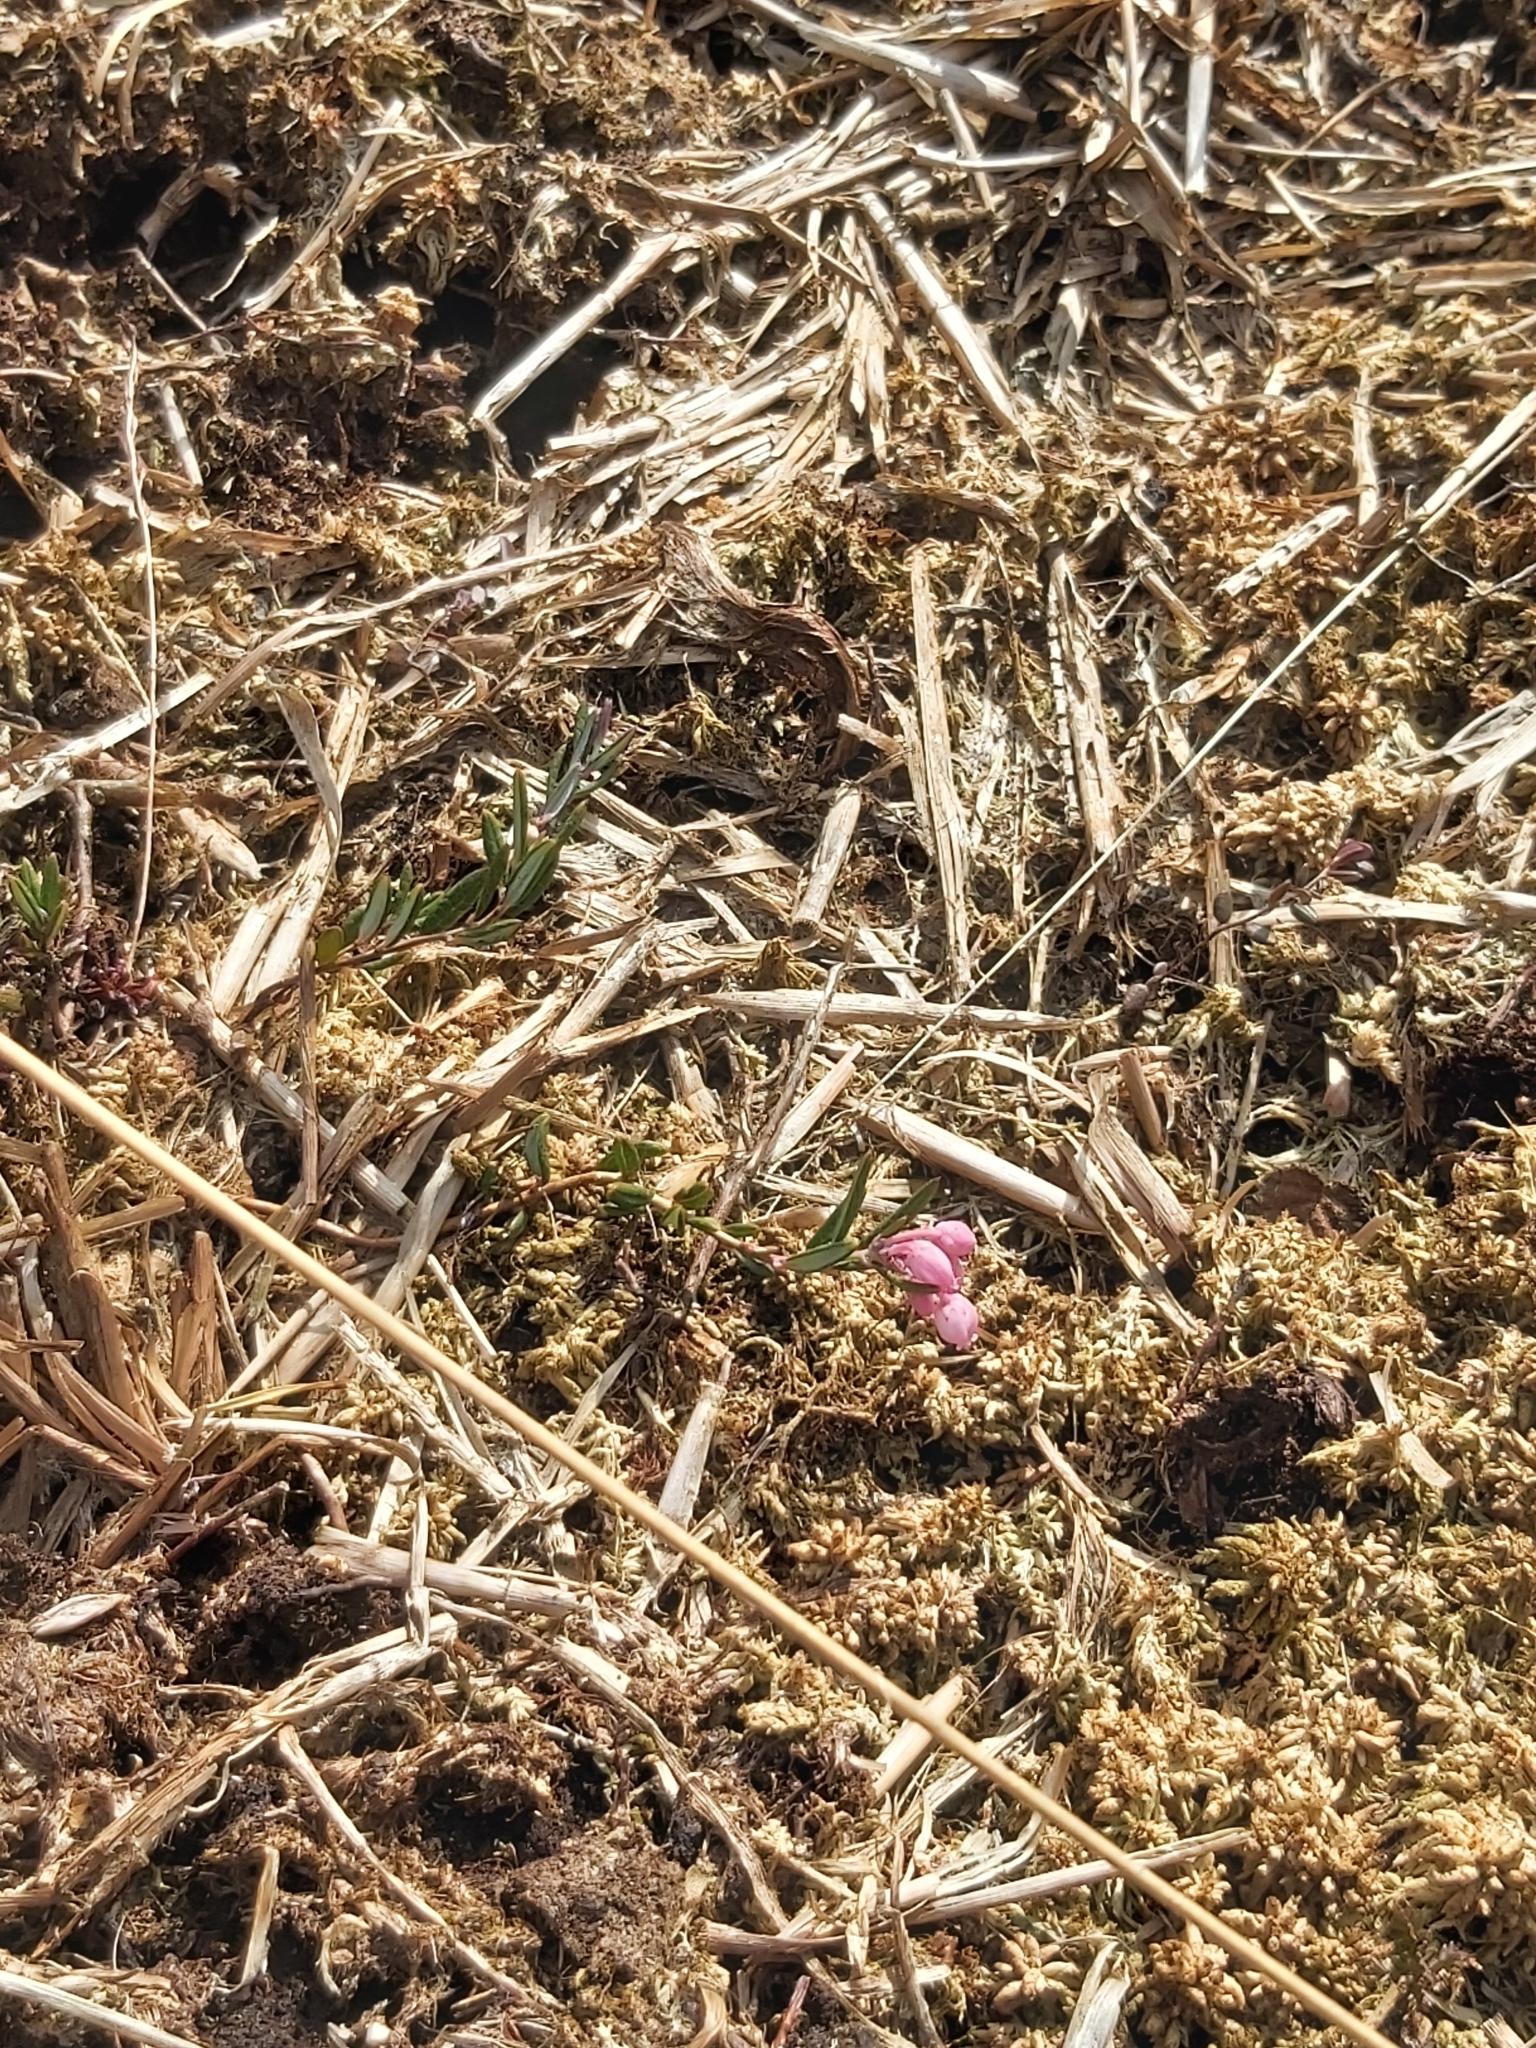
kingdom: Plantae
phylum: Tracheophyta
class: Magnoliopsida
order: Ericales
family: Ericaceae
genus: Andromeda
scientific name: Andromeda polifolia
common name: Bog-rosemary
